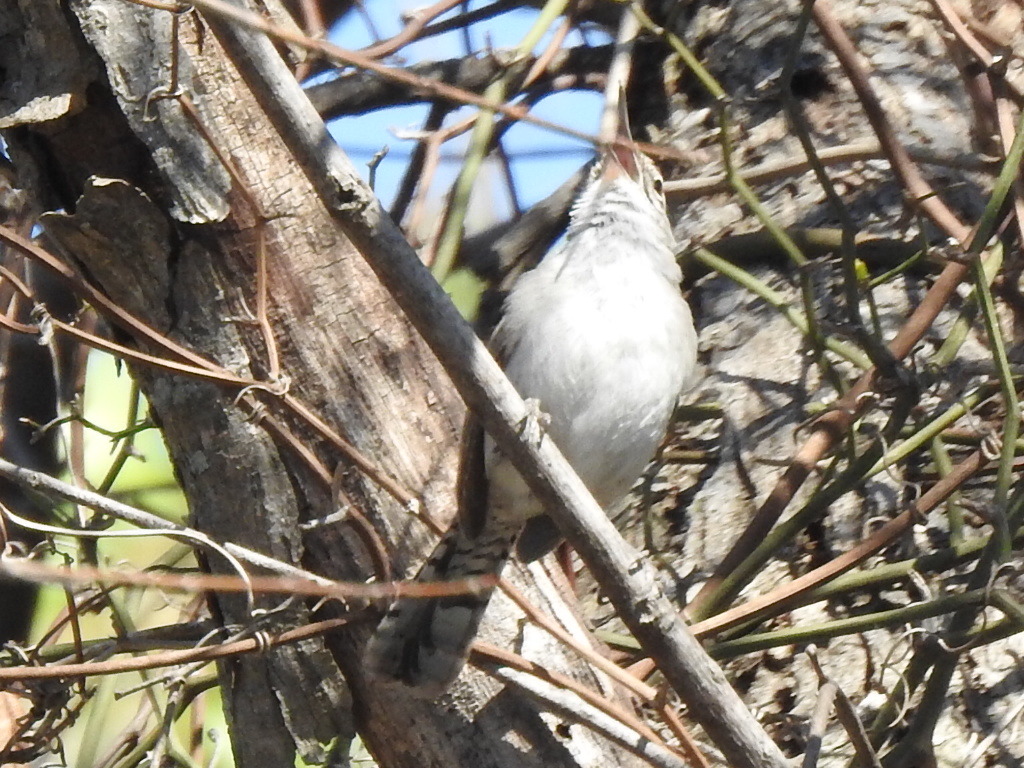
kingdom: Animalia
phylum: Chordata
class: Aves
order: Passeriformes
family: Troglodytidae
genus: Thryomanes
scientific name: Thryomanes bewickii
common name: Bewick's wren
